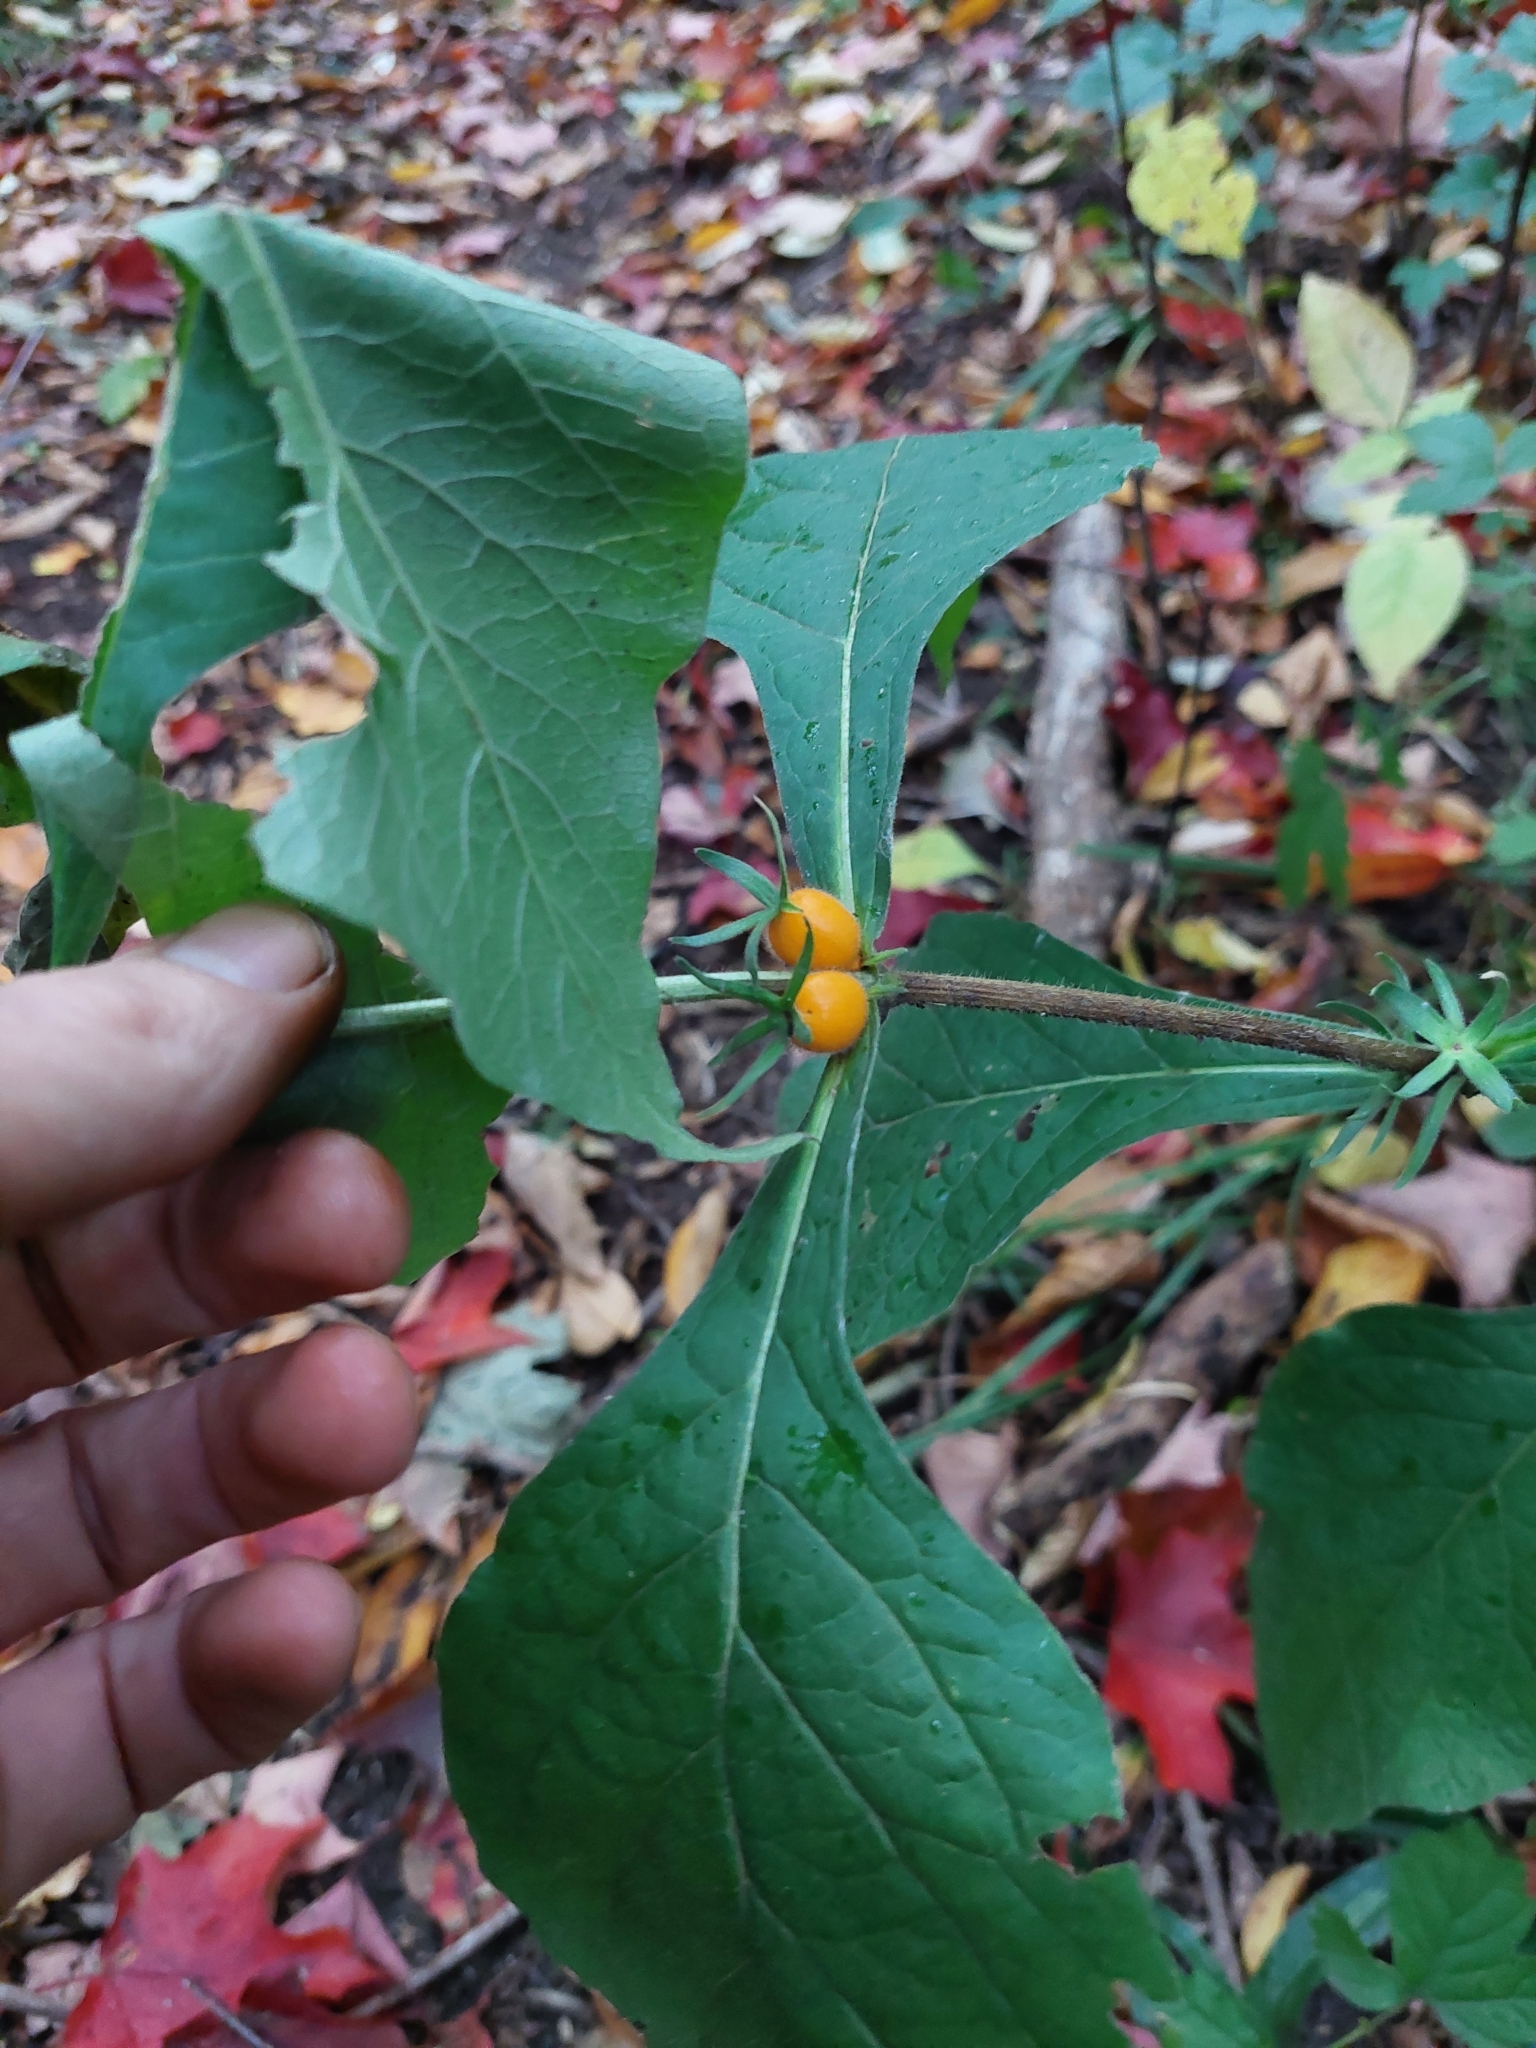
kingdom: Plantae
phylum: Tracheophyta
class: Magnoliopsida
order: Dipsacales
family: Caprifoliaceae
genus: Triosteum
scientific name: Triosteum aurantiacum
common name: Coffee tinker's-weed
